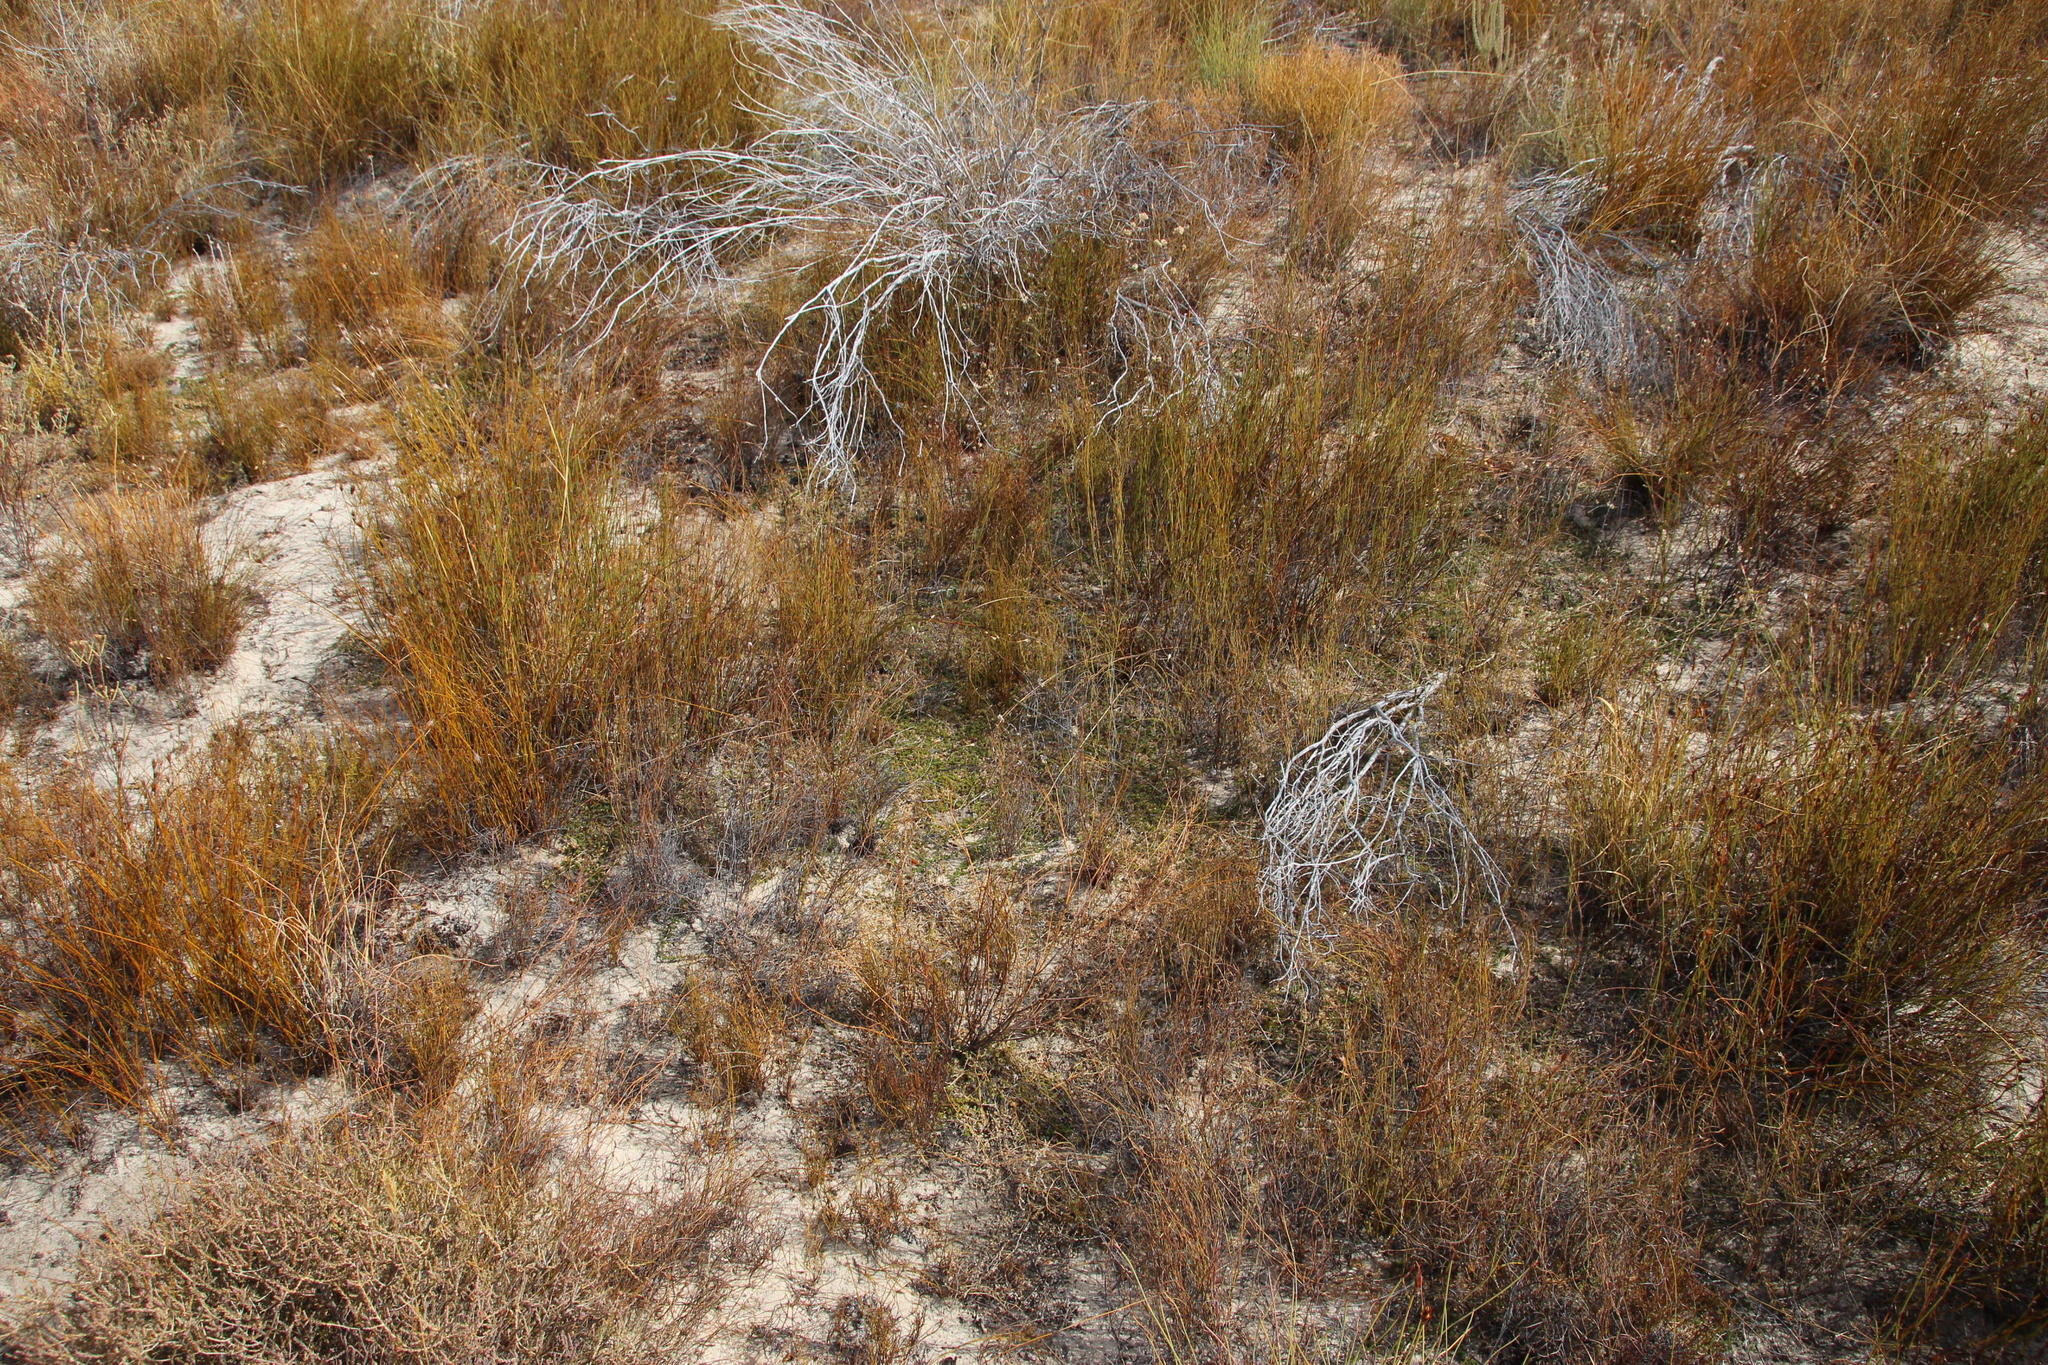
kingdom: Plantae
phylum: Tracheophyta
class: Magnoliopsida
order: Fabales
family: Fabaceae
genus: Aspalathus
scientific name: Aspalathus brevicarpa
